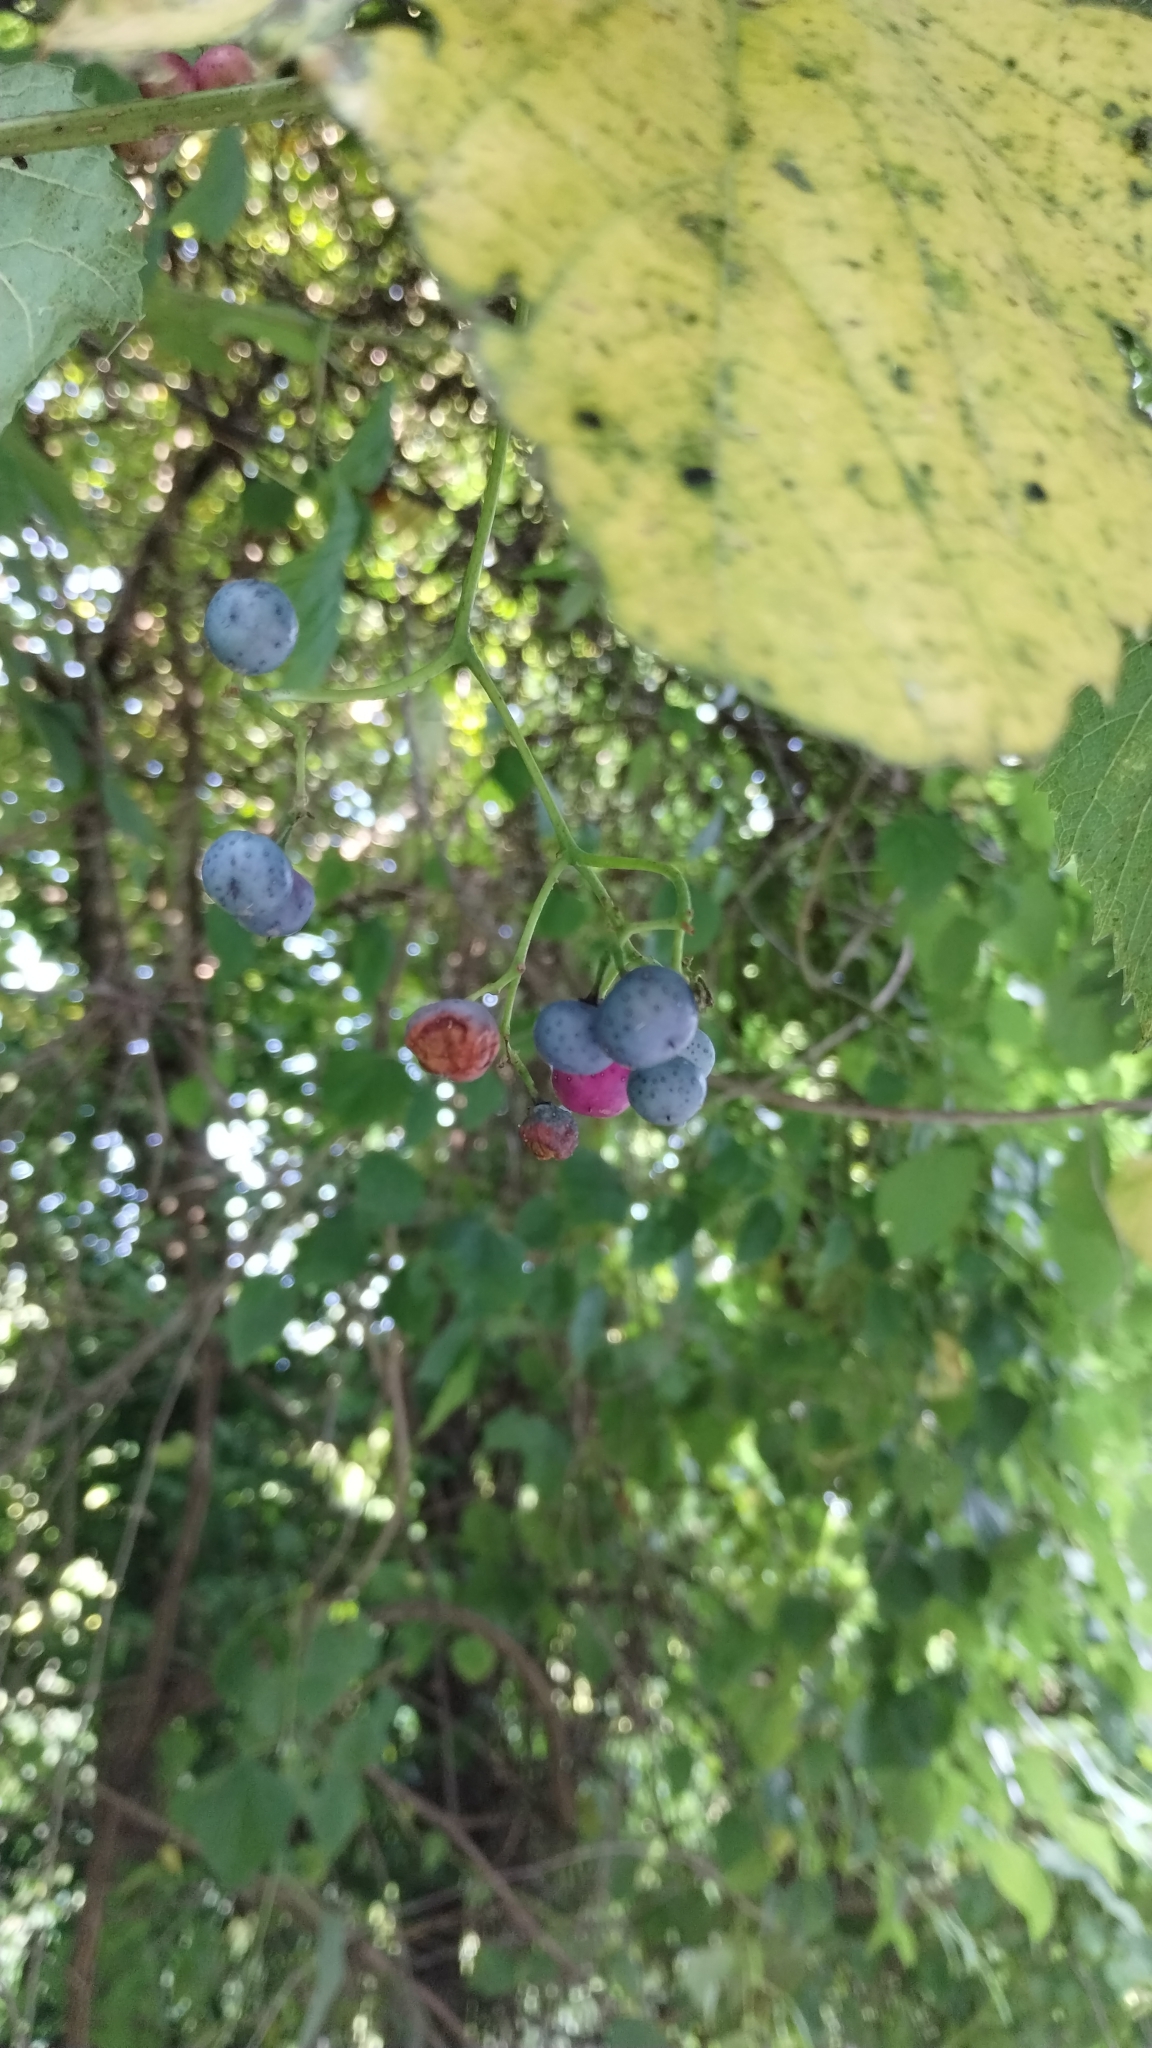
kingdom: Plantae
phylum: Tracheophyta
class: Magnoliopsida
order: Vitales
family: Vitaceae
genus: Ampelopsis
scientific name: Ampelopsis cordata
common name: Heart-leaf ampelopsis
